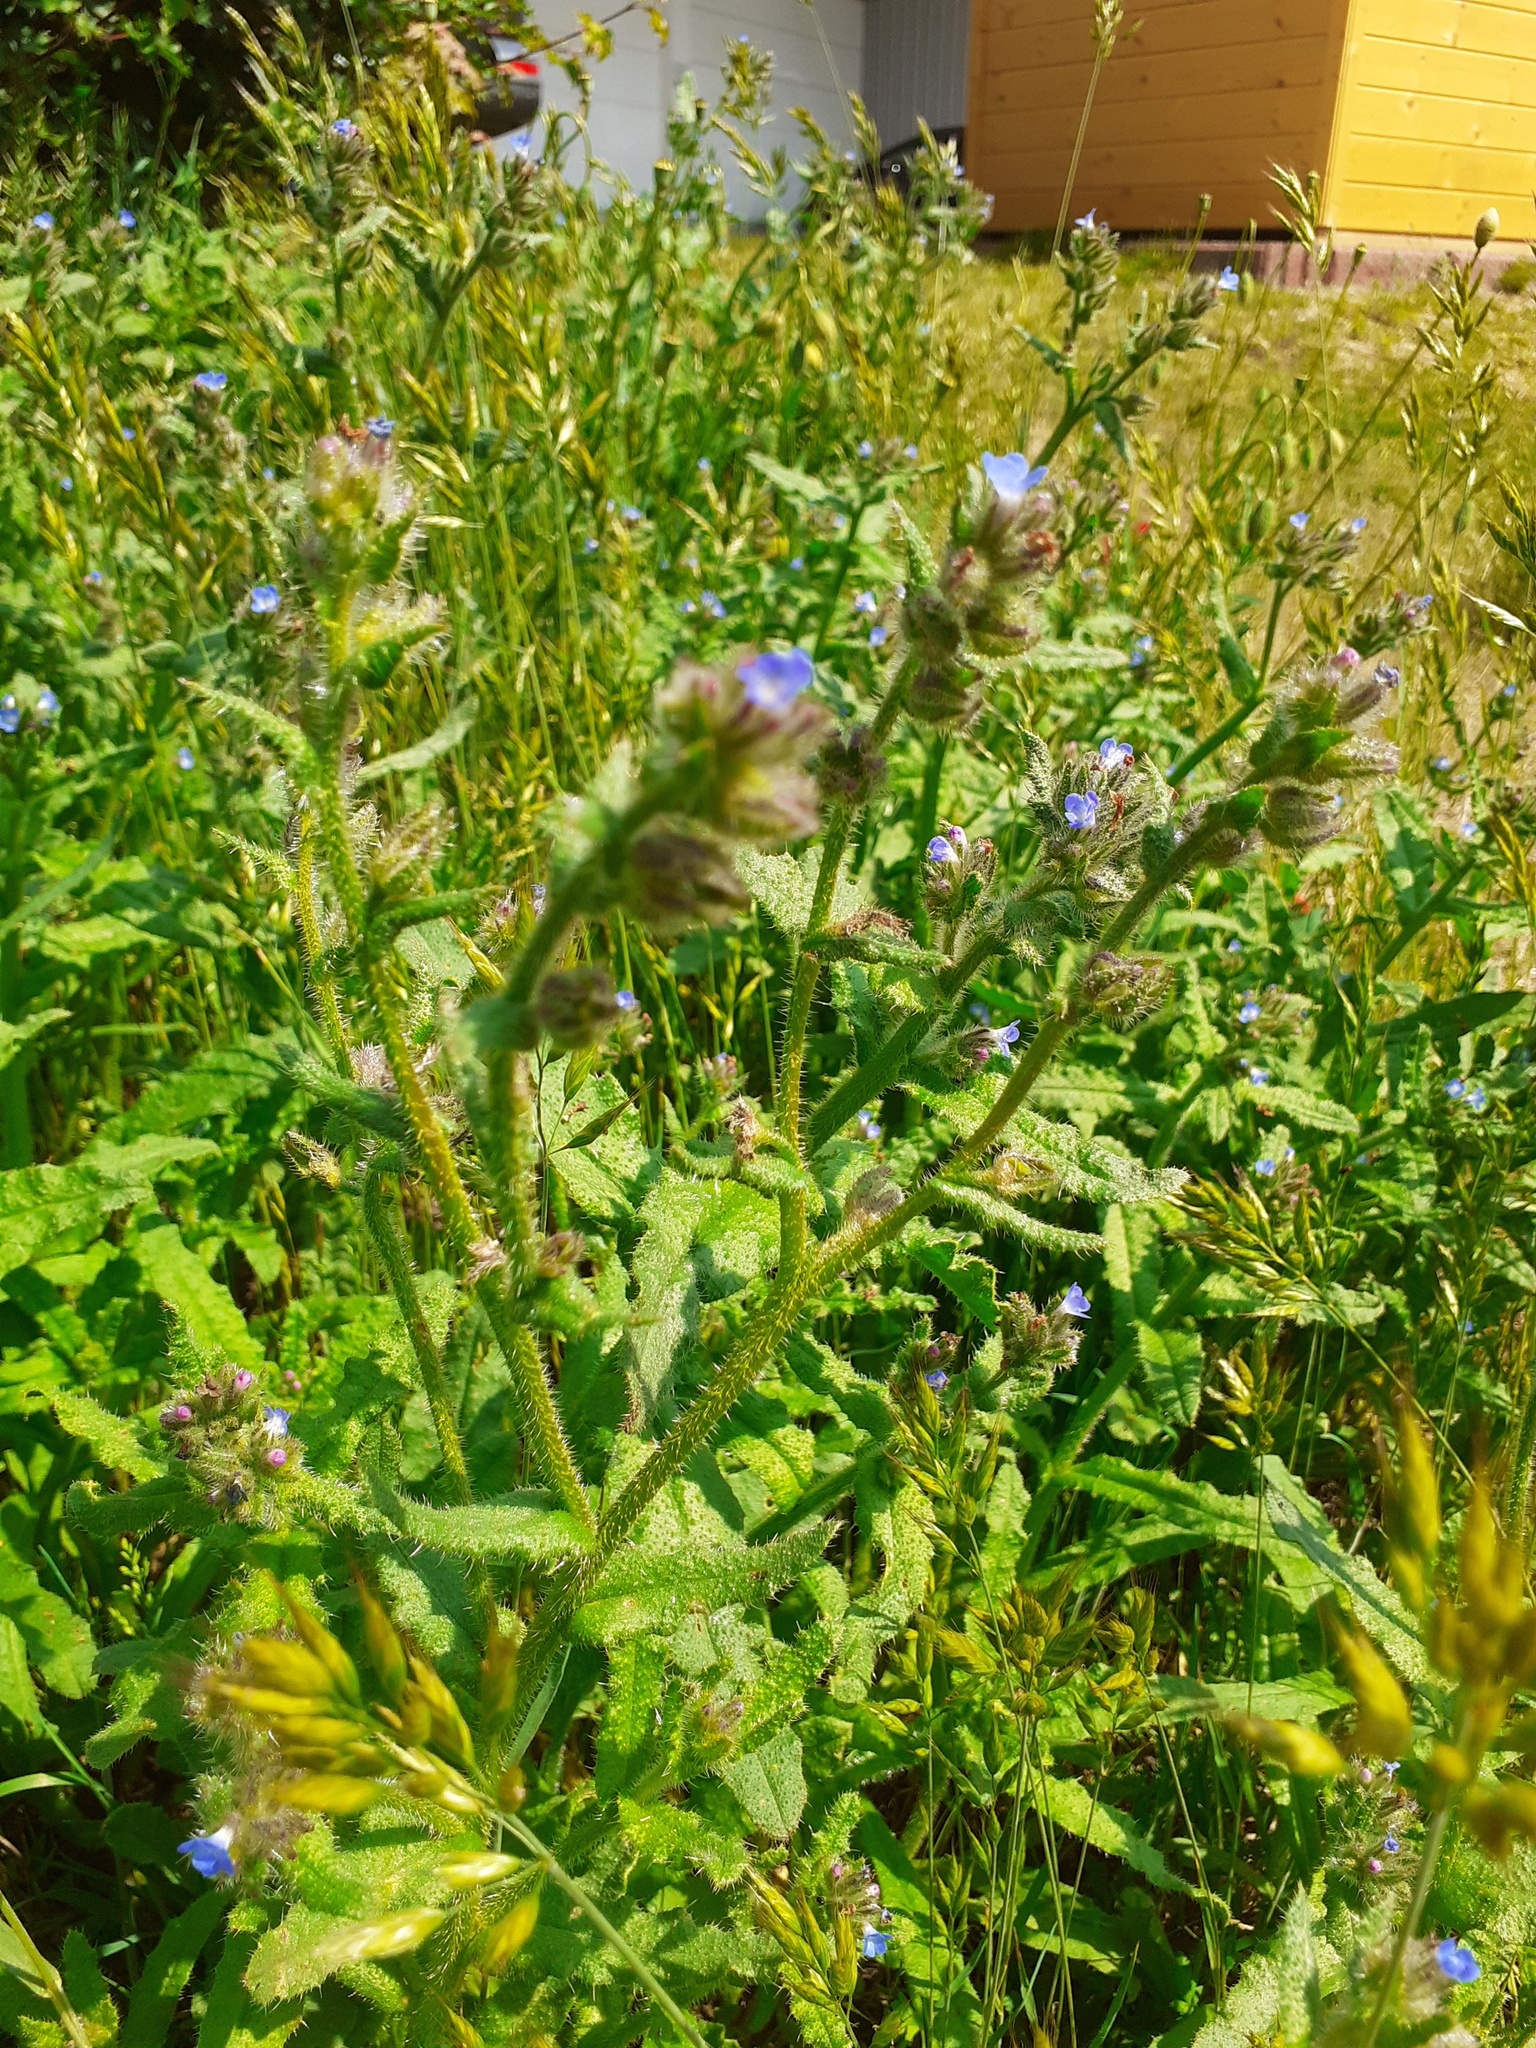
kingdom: Plantae
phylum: Tracheophyta
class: Magnoliopsida
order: Boraginales
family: Boraginaceae
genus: Lycopsis
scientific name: Lycopsis arvensis
